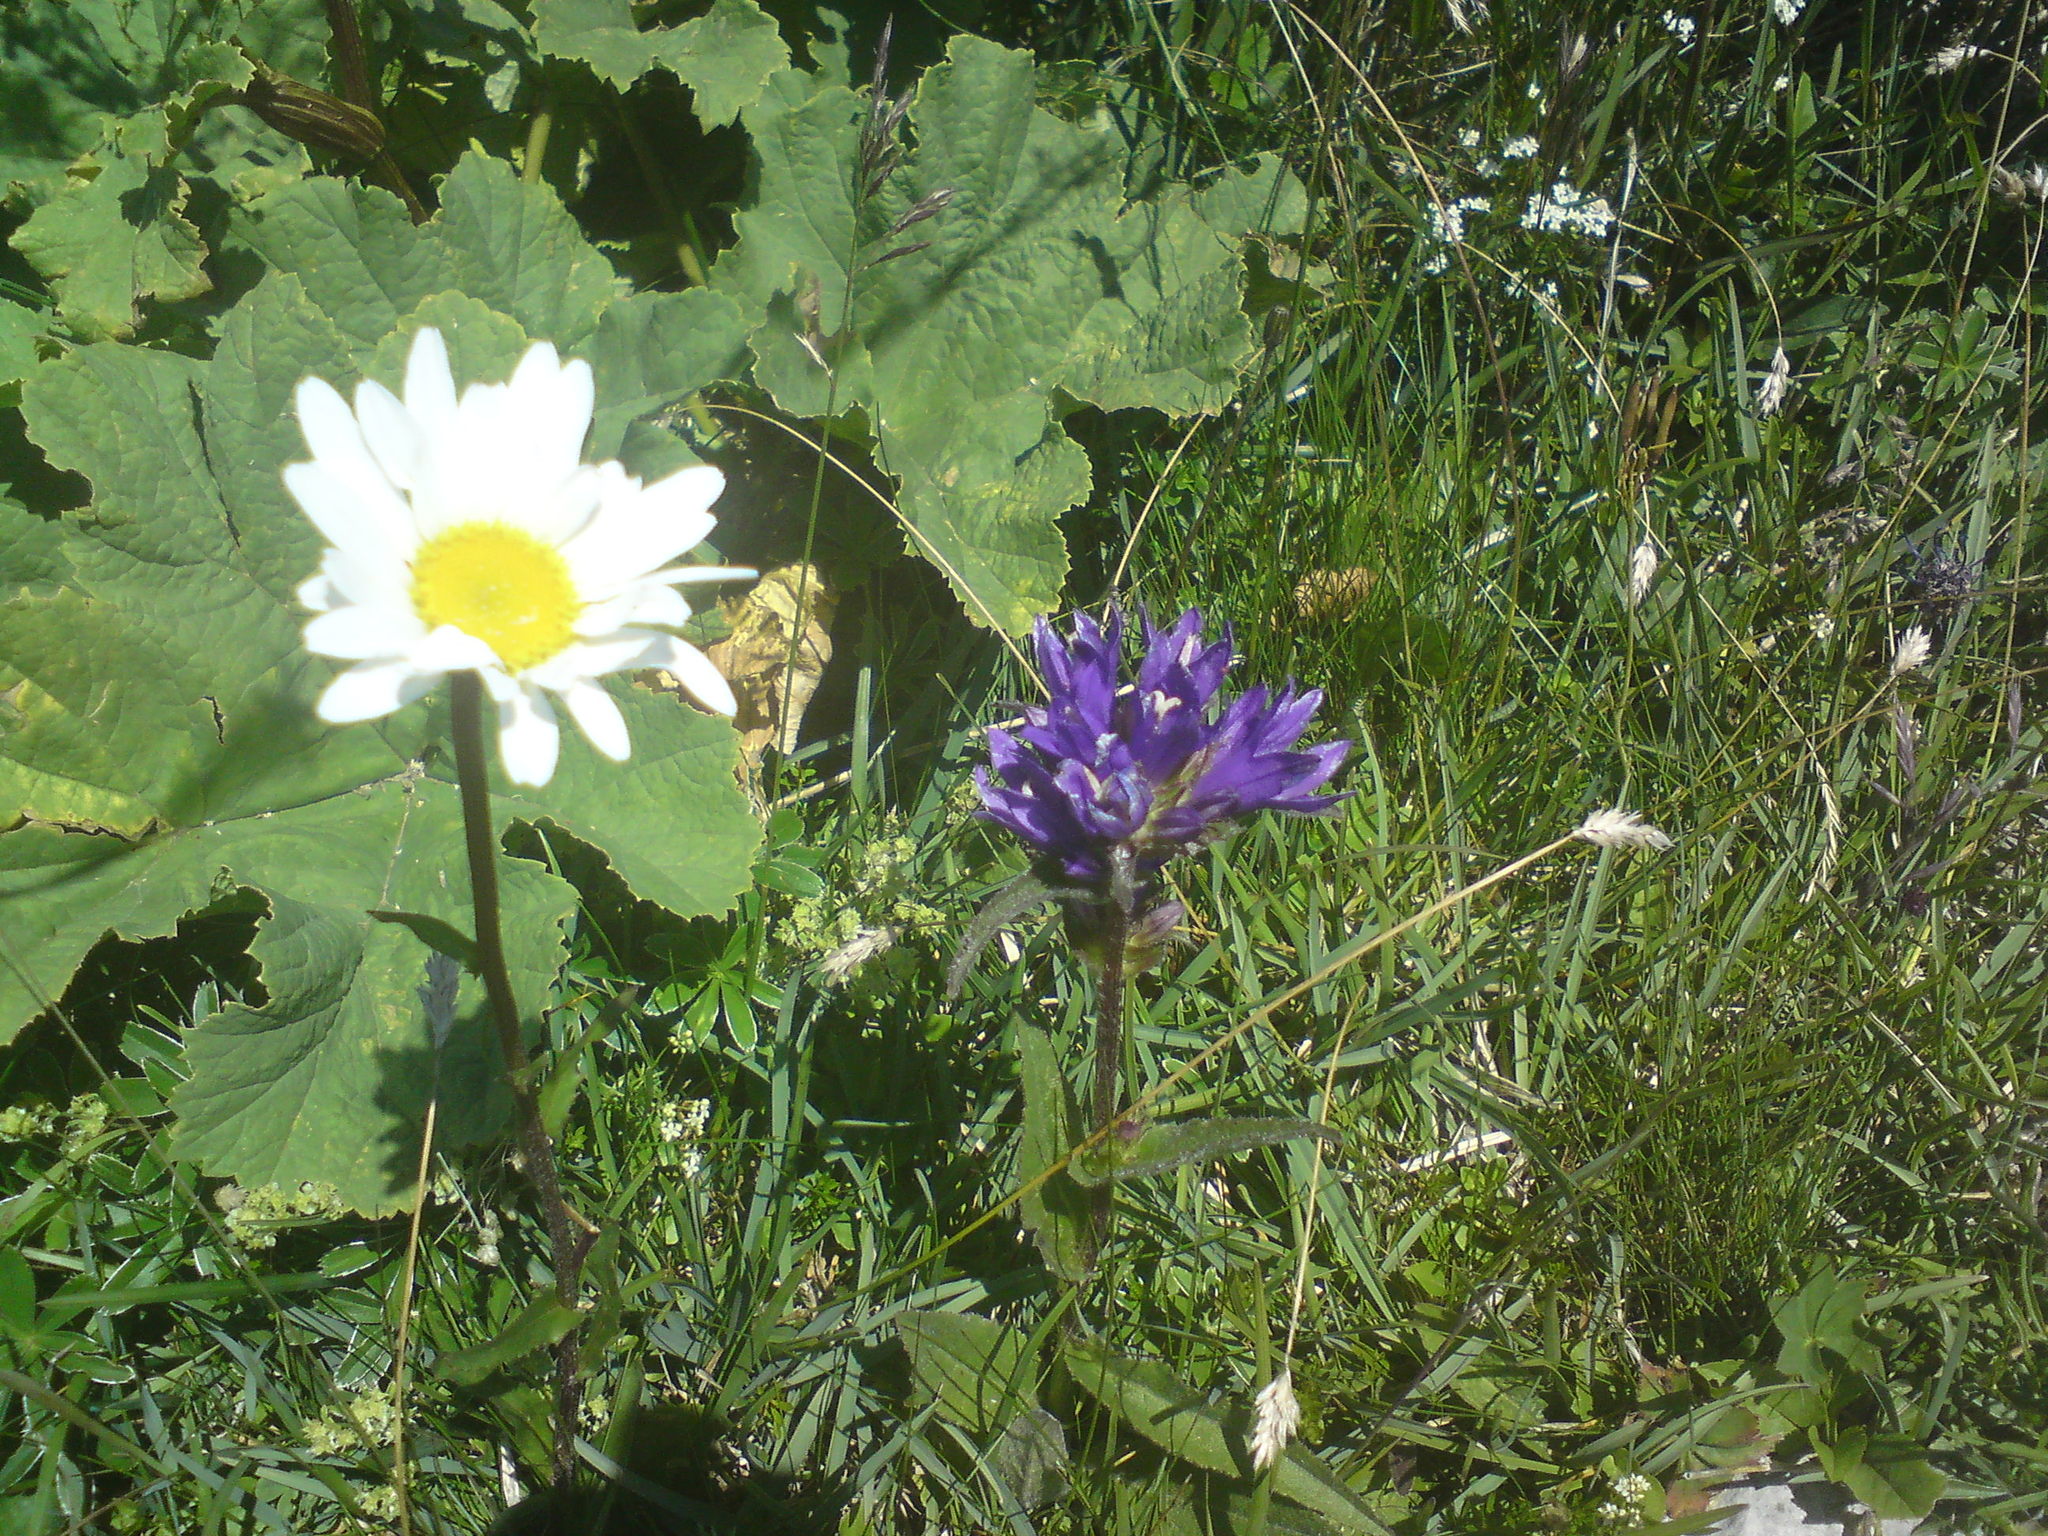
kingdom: Plantae
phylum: Tracheophyta
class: Magnoliopsida
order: Asterales
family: Campanulaceae
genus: Campanula
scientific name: Campanula glomerata
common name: Clustered bellflower
